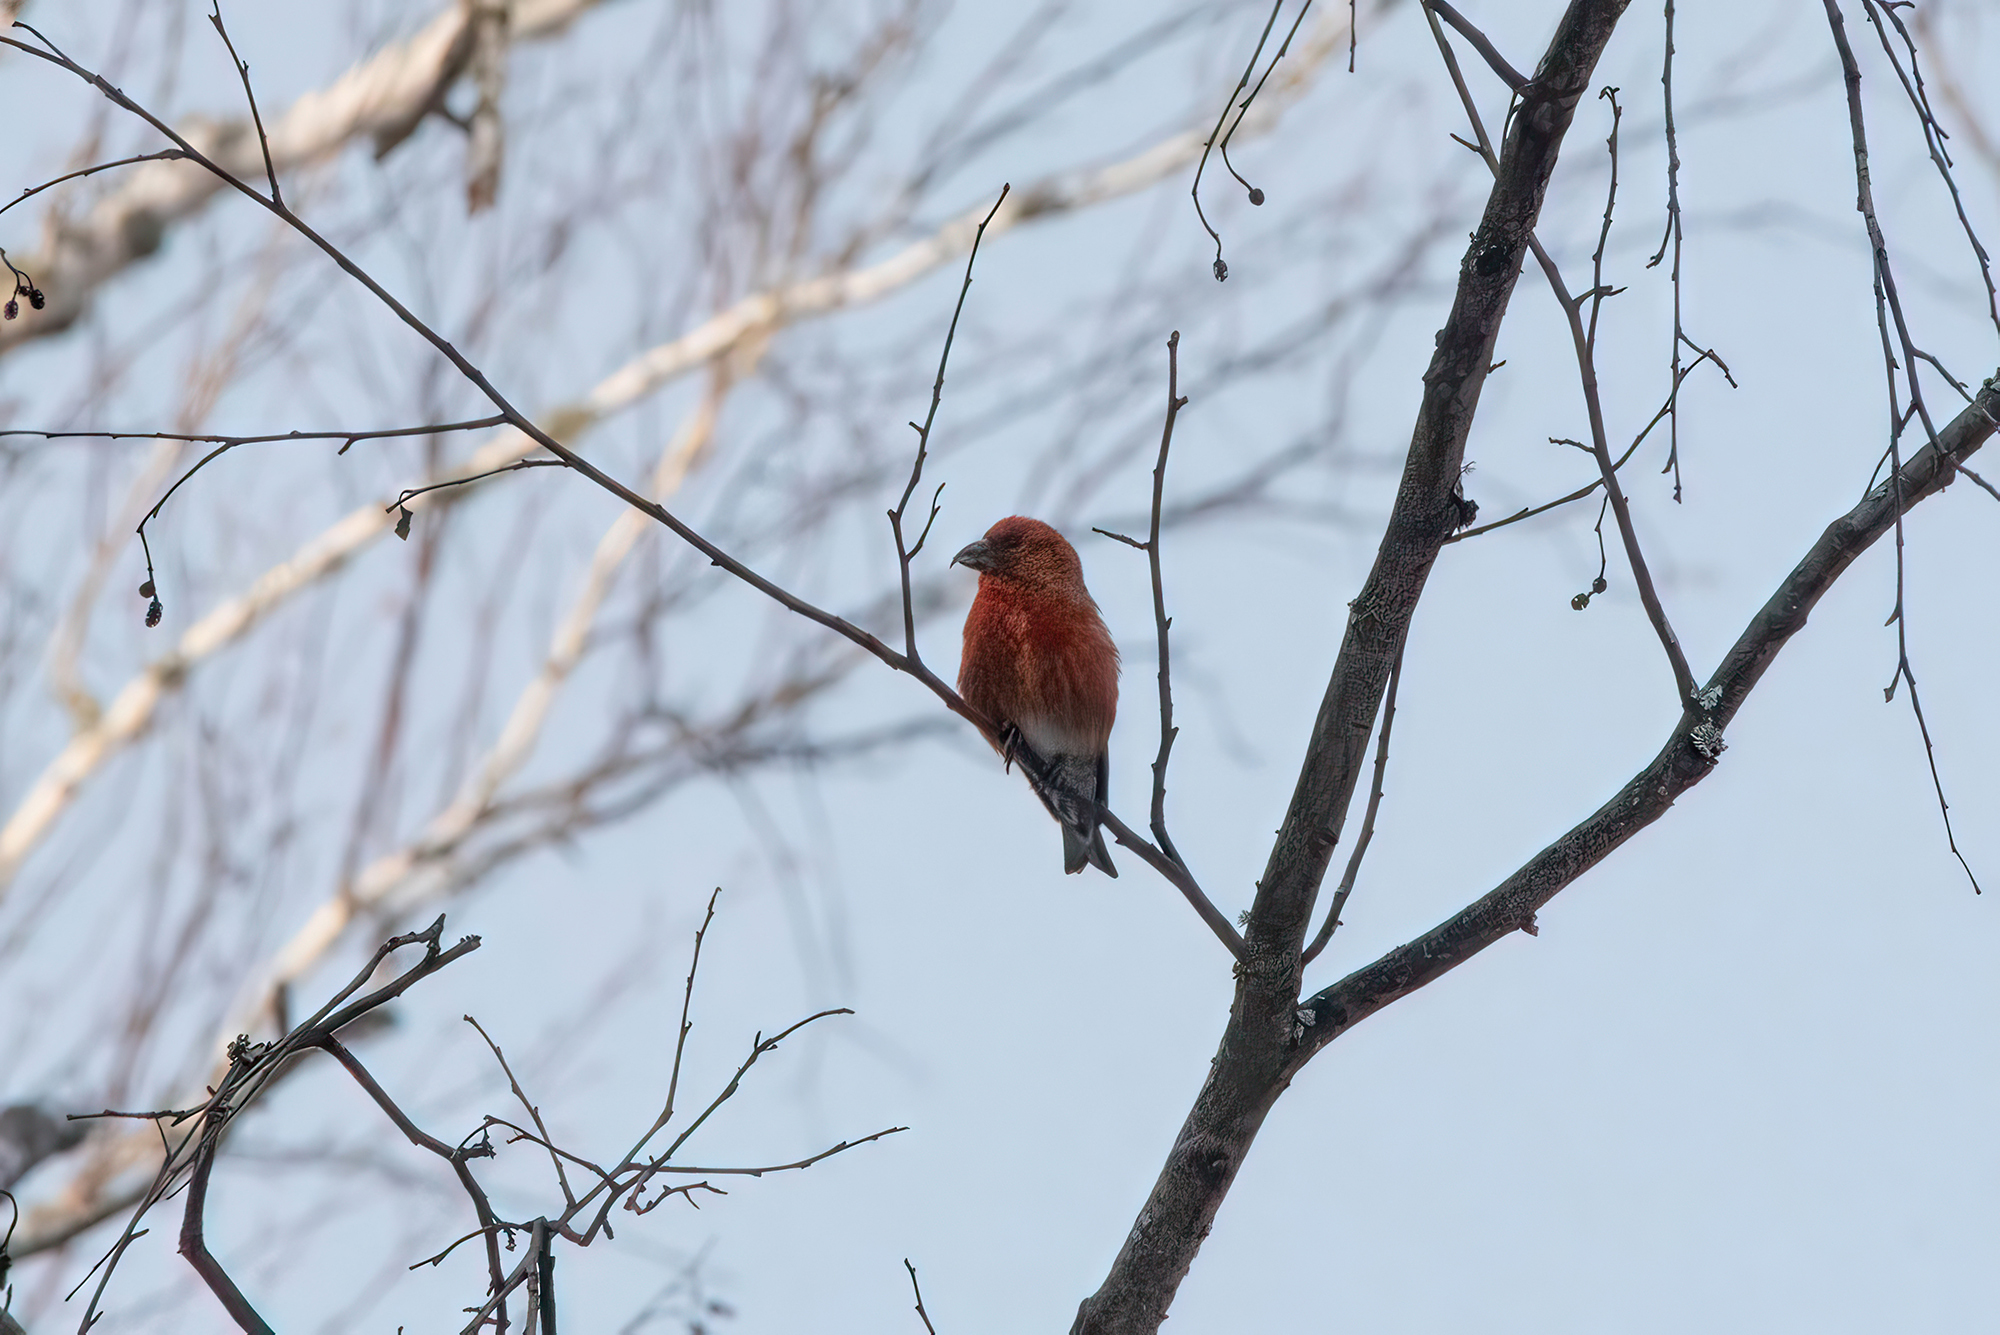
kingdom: Animalia
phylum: Chordata
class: Aves
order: Passeriformes
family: Fringillidae
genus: Loxia
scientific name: Loxia curvirostra
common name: Red crossbill
